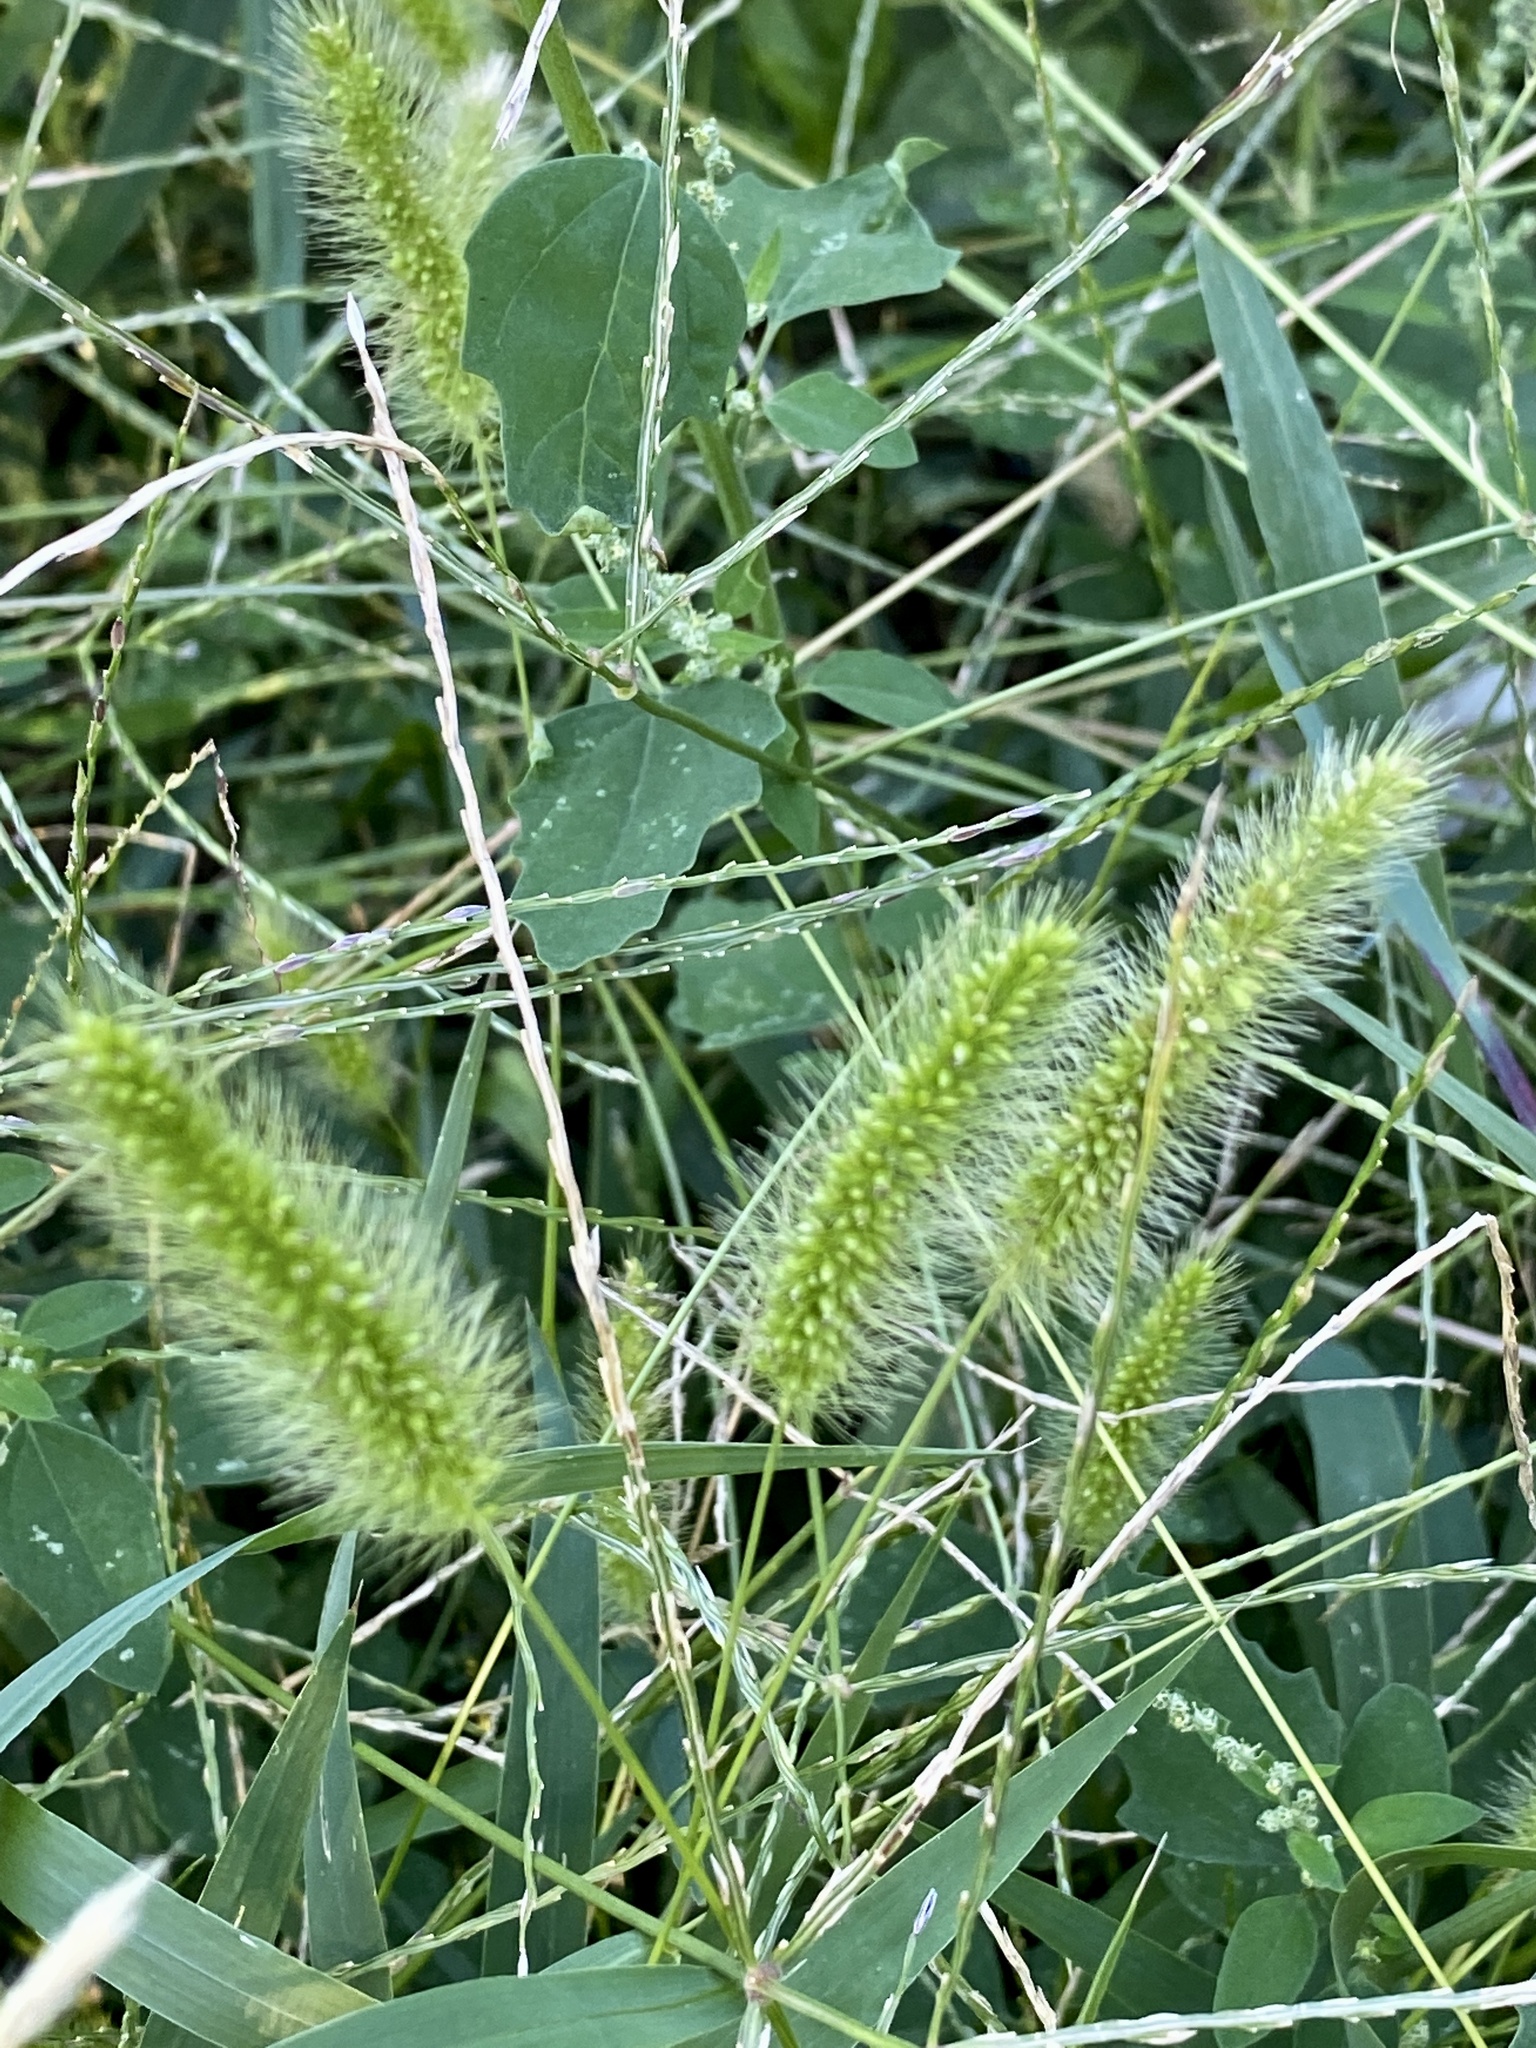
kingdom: Plantae
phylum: Tracheophyta
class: Liliopsida
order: Poales
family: Poaceae
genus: Setaria
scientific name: Setaria viridis
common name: Green bristlegrass
